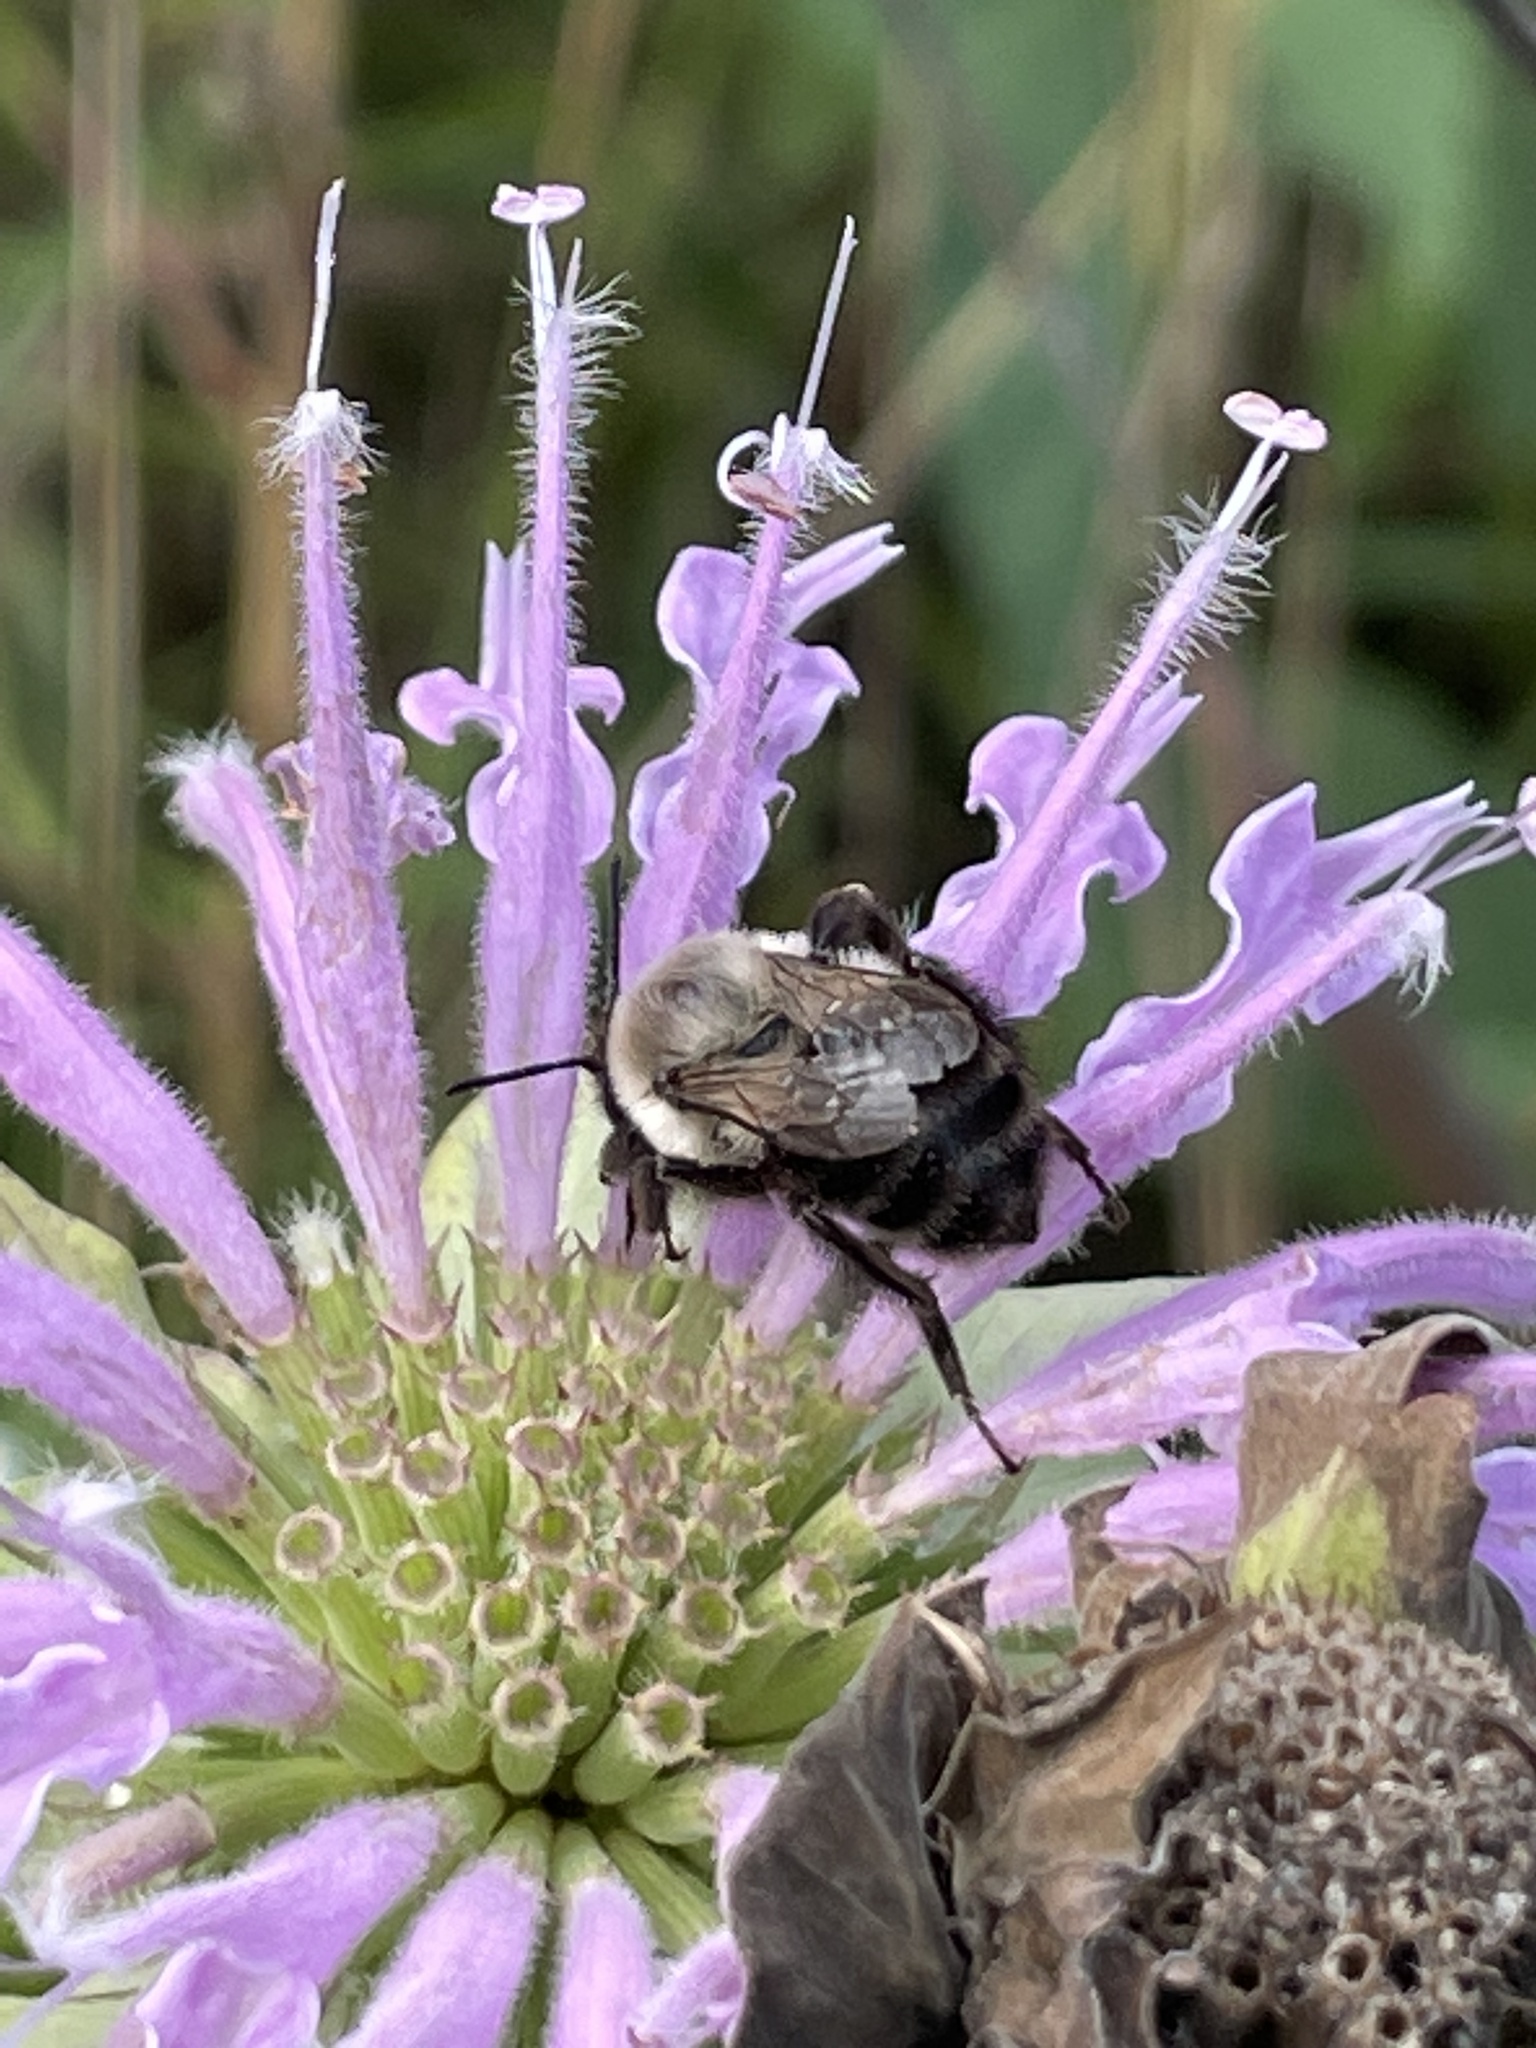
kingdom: Animalia
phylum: Arthropoda
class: Insecta
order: Hymenoptera
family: Apidae
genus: Bombus
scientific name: Bombus impatiens
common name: Common eastern bumble bee
